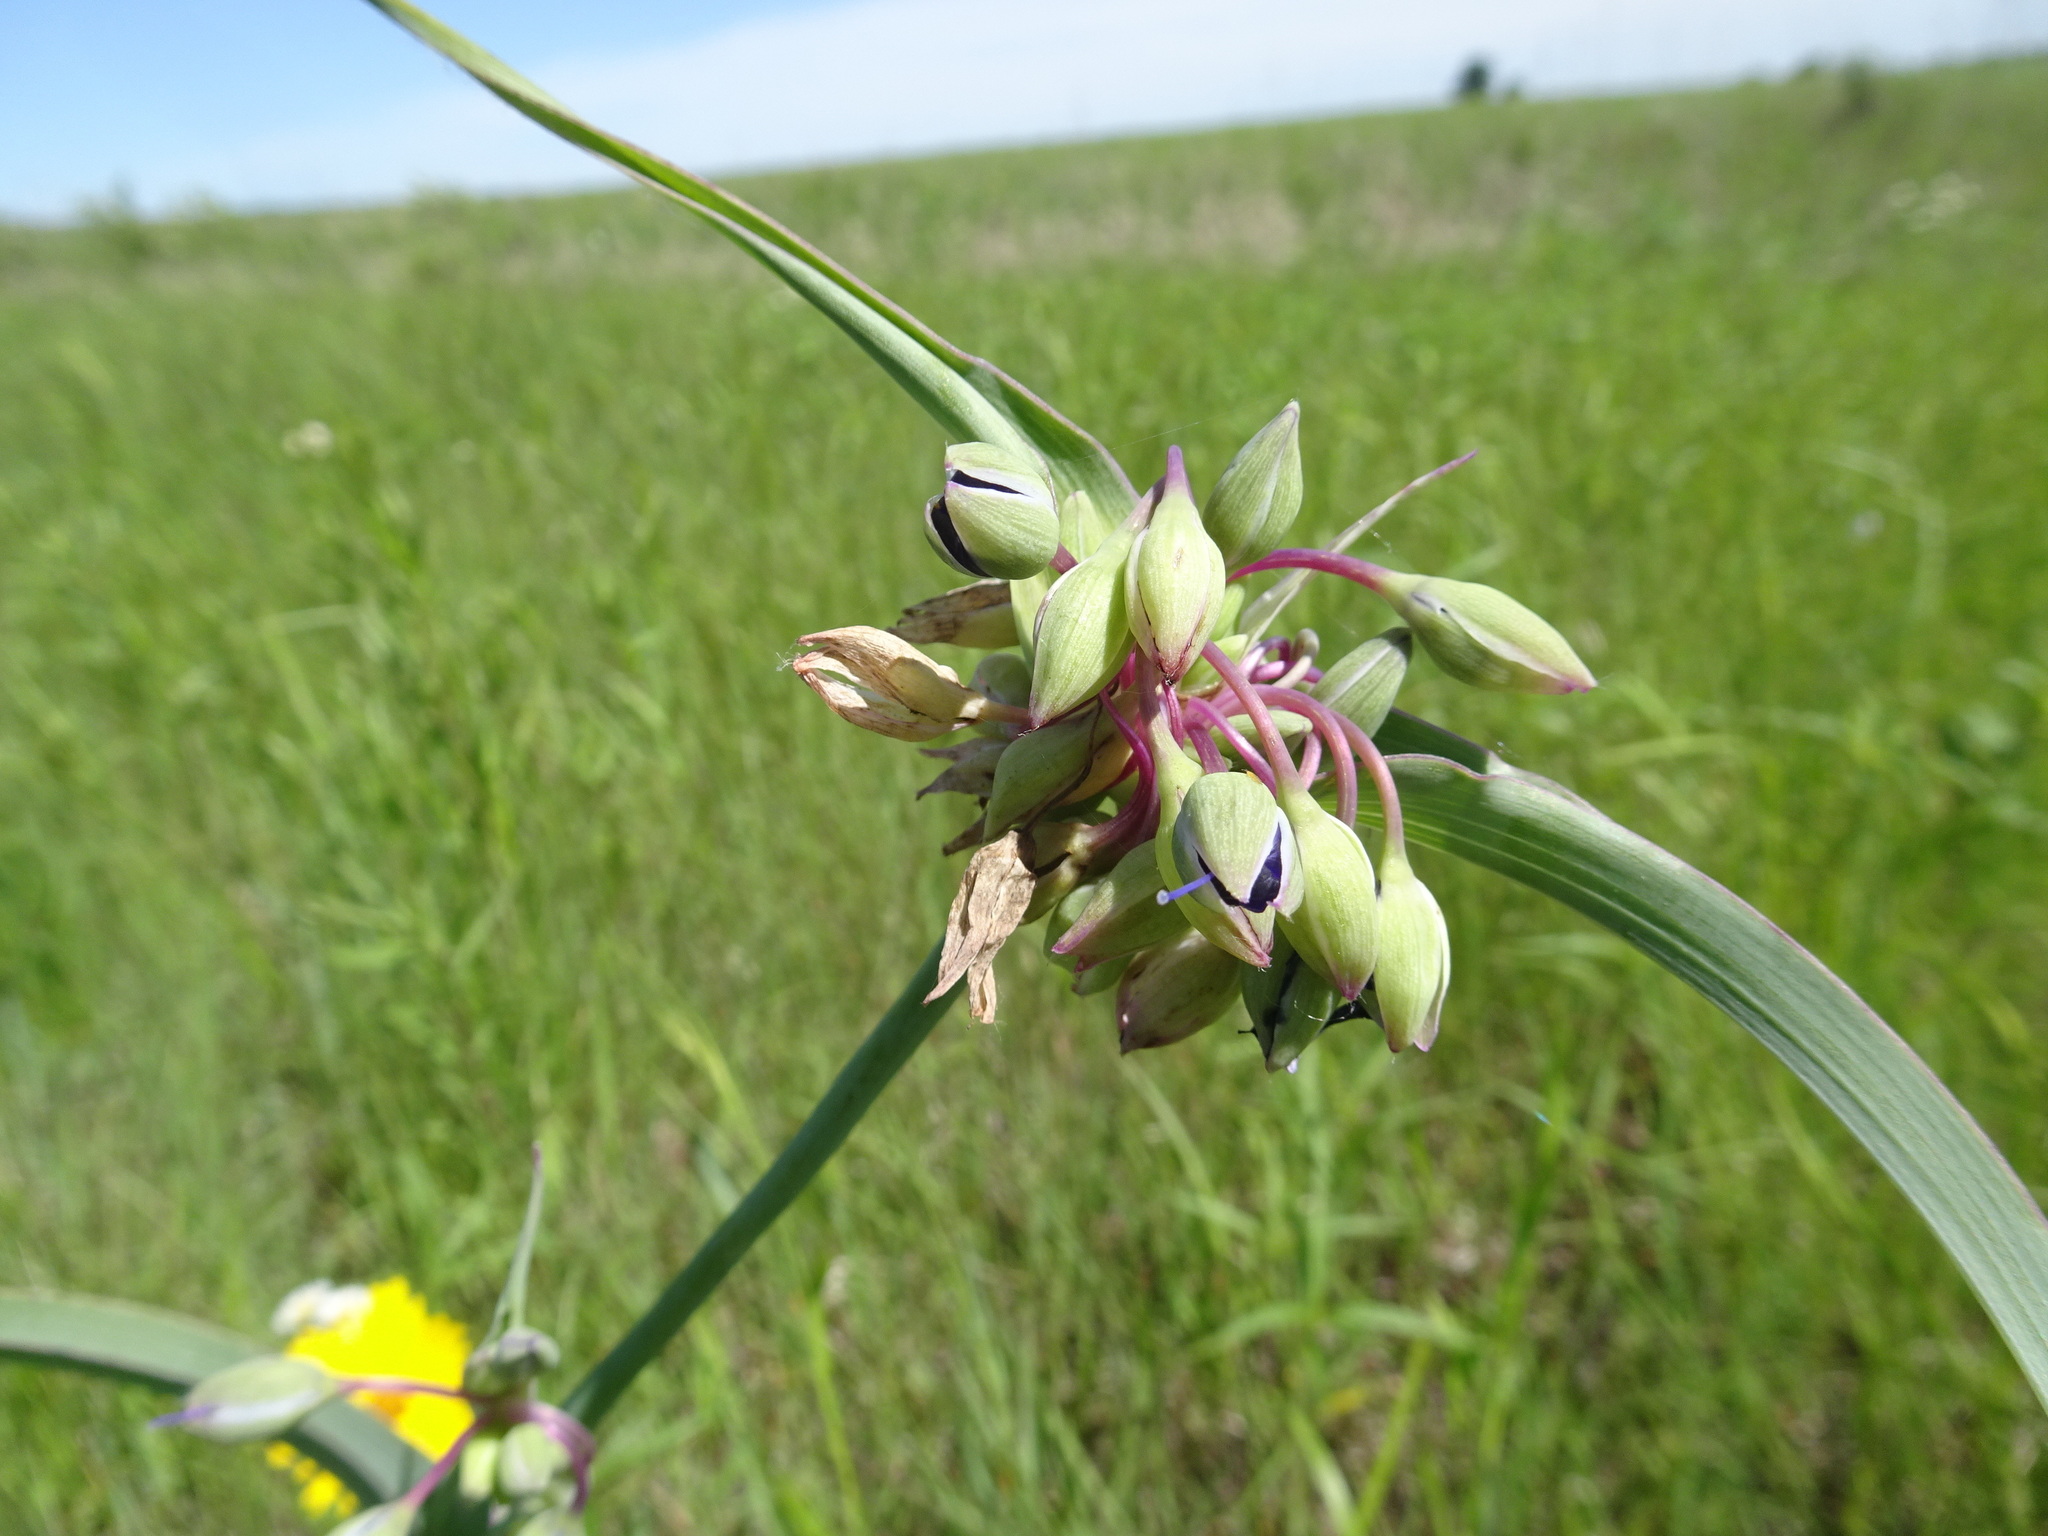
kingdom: Plantae
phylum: Tracheophyta
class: Liliopsida
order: Commelinales
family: Commelinaceae
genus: Tradescantia
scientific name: Tradescantia ohiensis
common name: Ohio spiderwort
